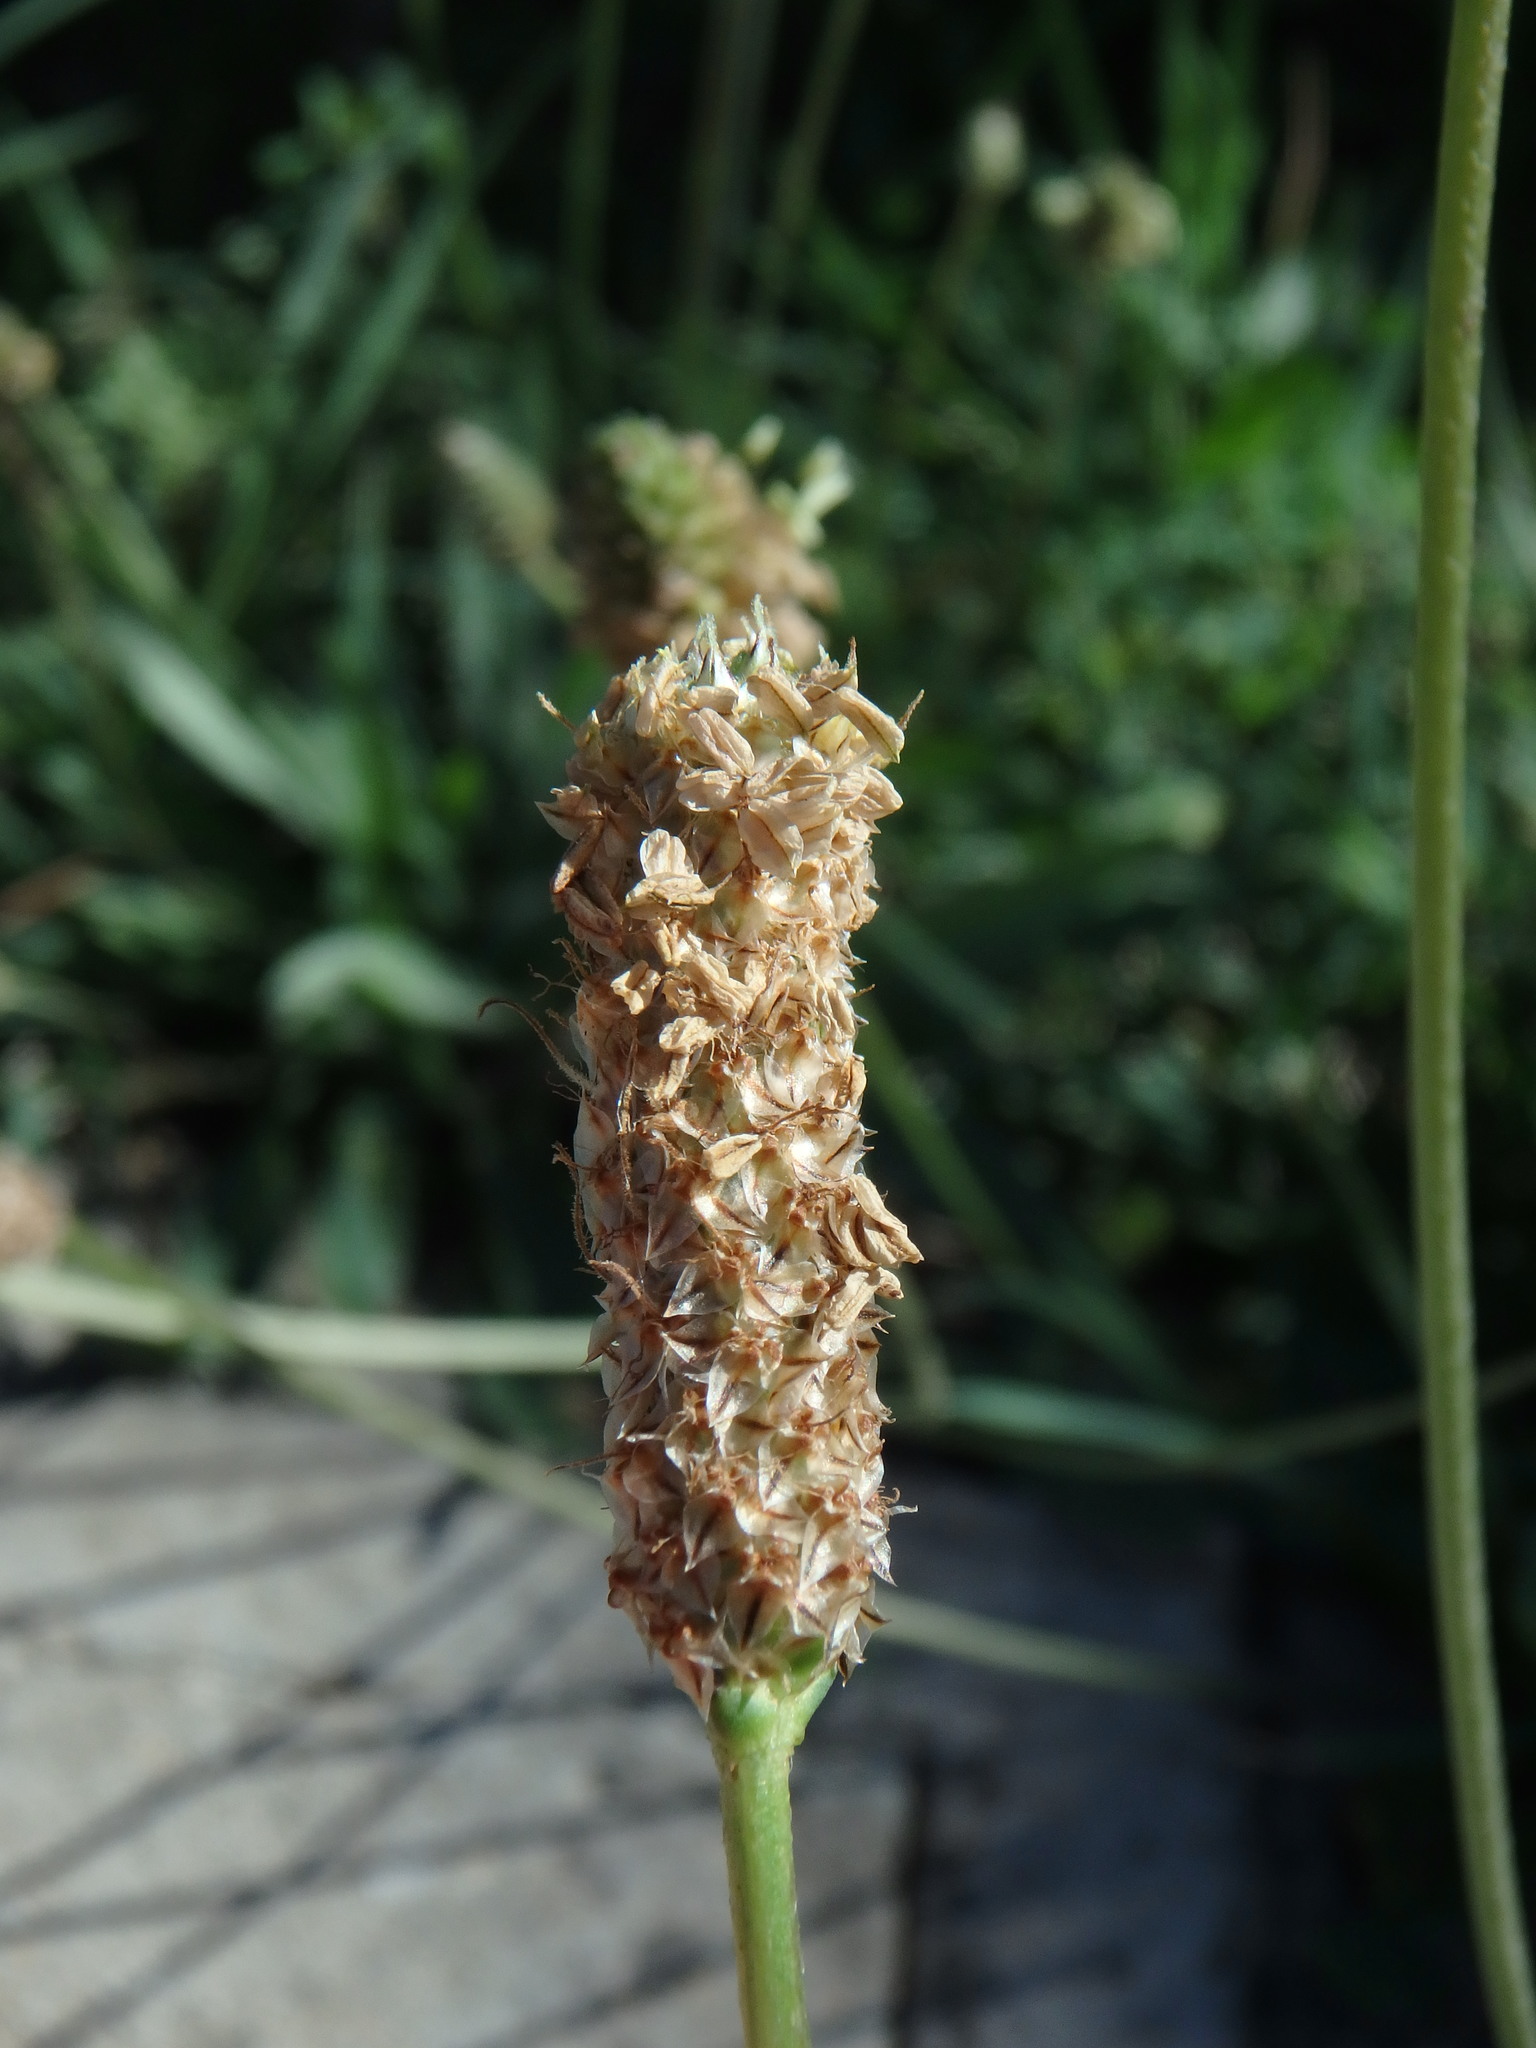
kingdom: Plantae
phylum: Tracheophyta
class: Magnoliopsida
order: Lamiales
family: Plantaginaceae
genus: Plantago
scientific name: Plantago lanceolata
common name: Ribwort plantain
